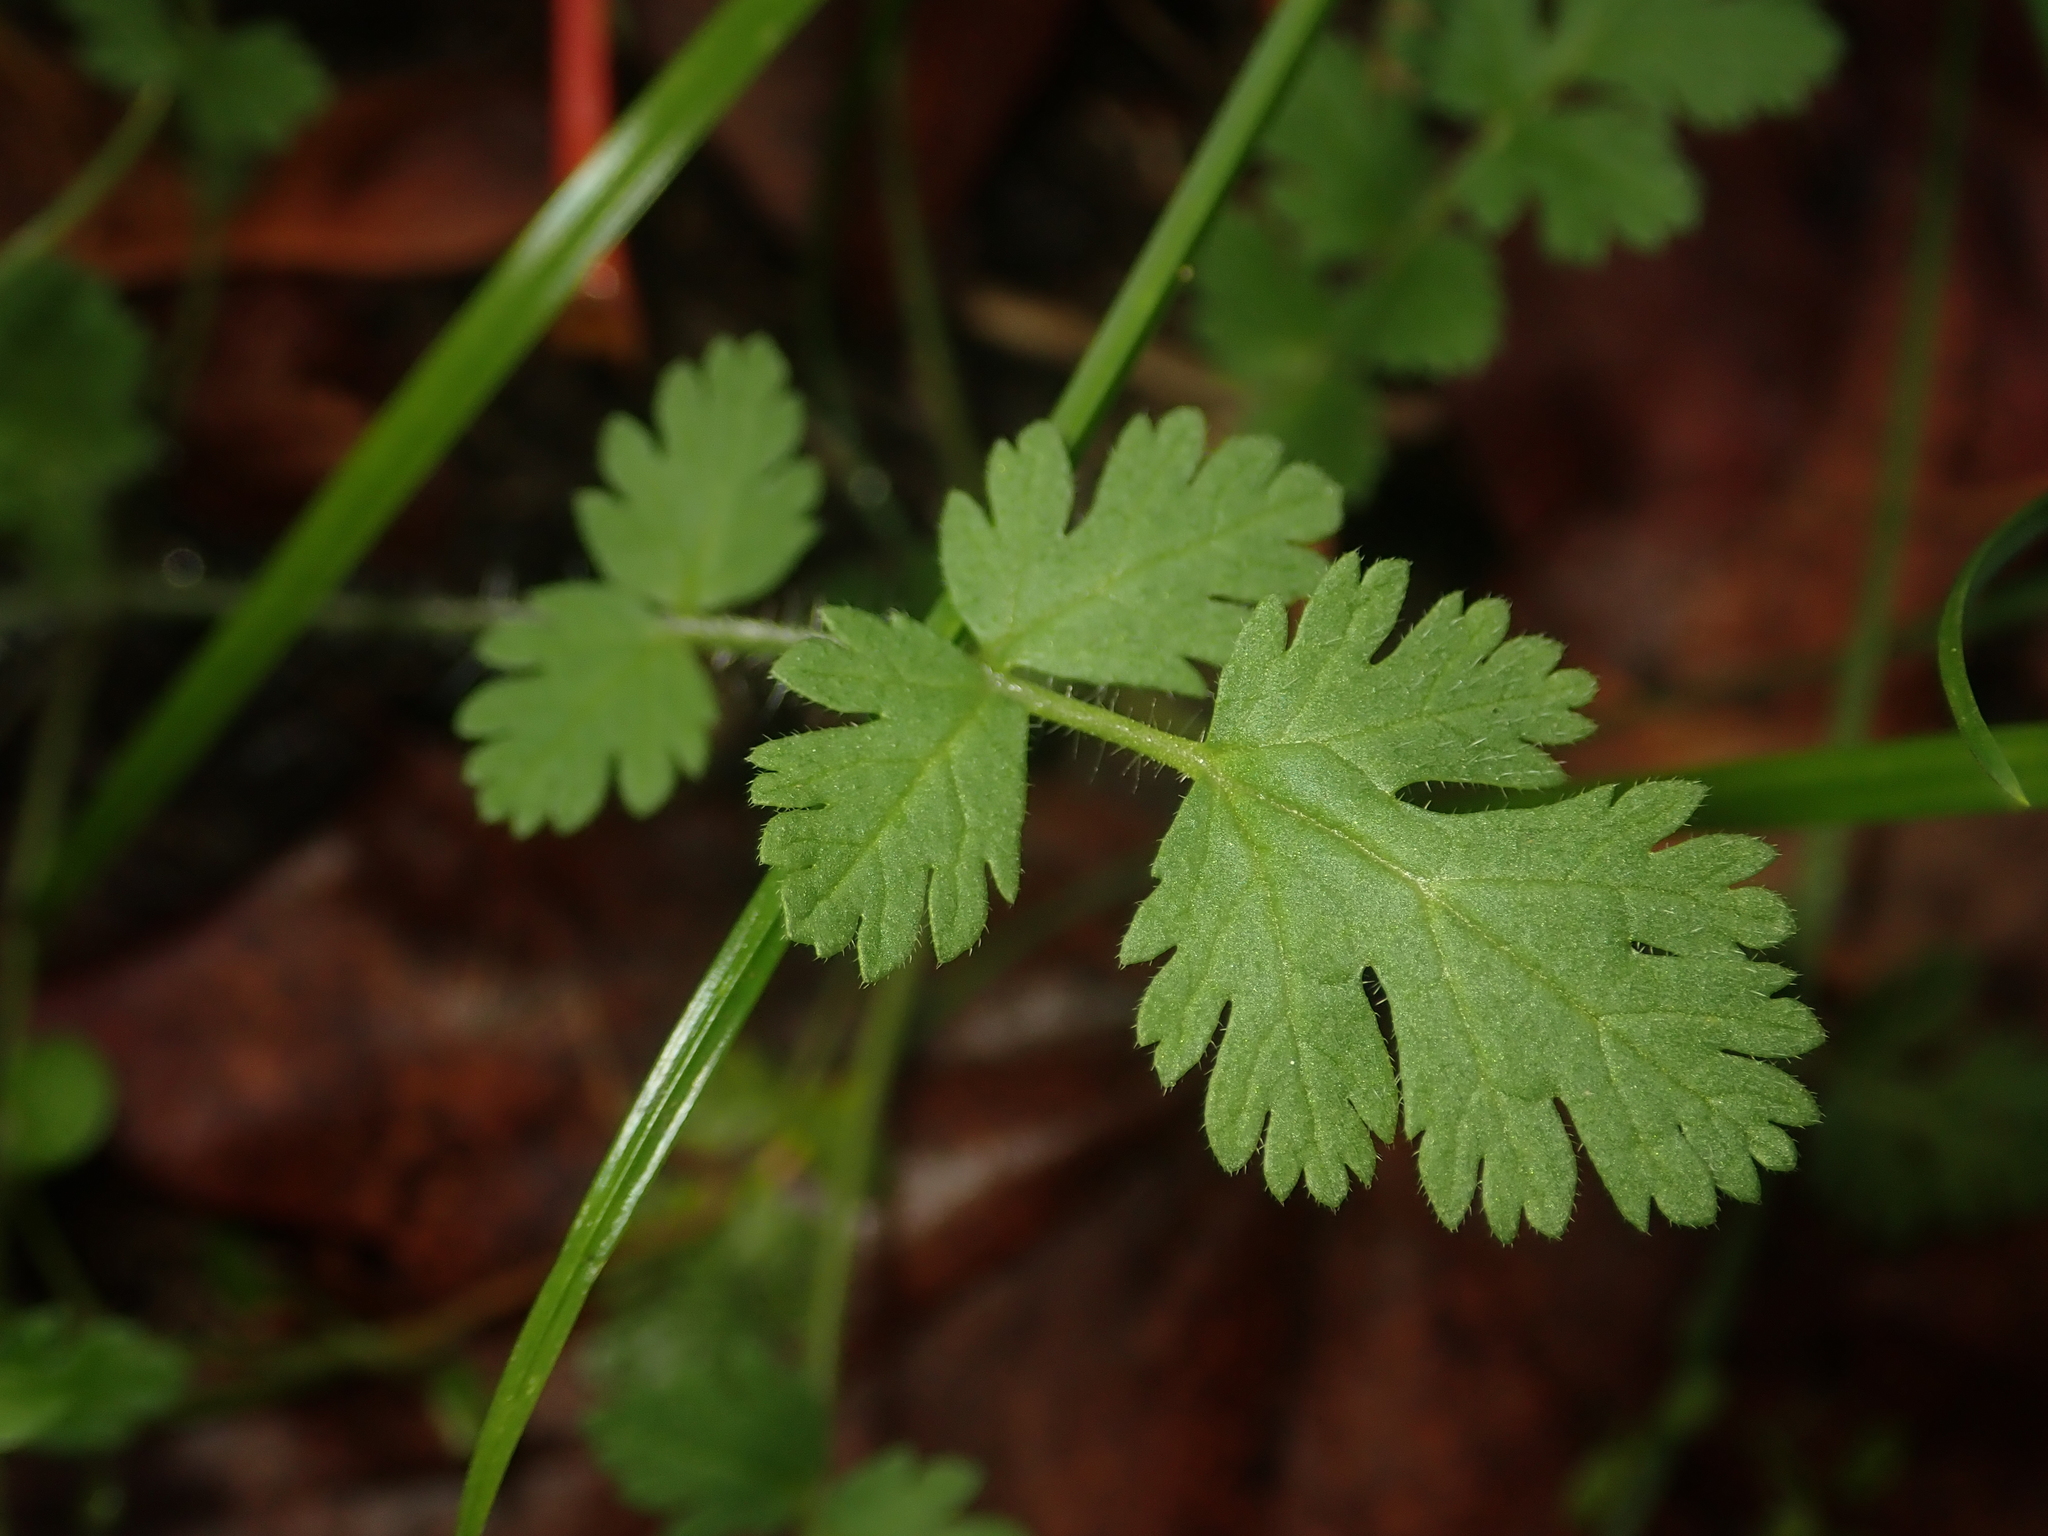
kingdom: Plantae
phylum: Tracheophyta
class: Magnoliopsida
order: Geraniales
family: Geraniaceae
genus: Erodium
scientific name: Erodium cicutarium
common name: Common stork's-bill
